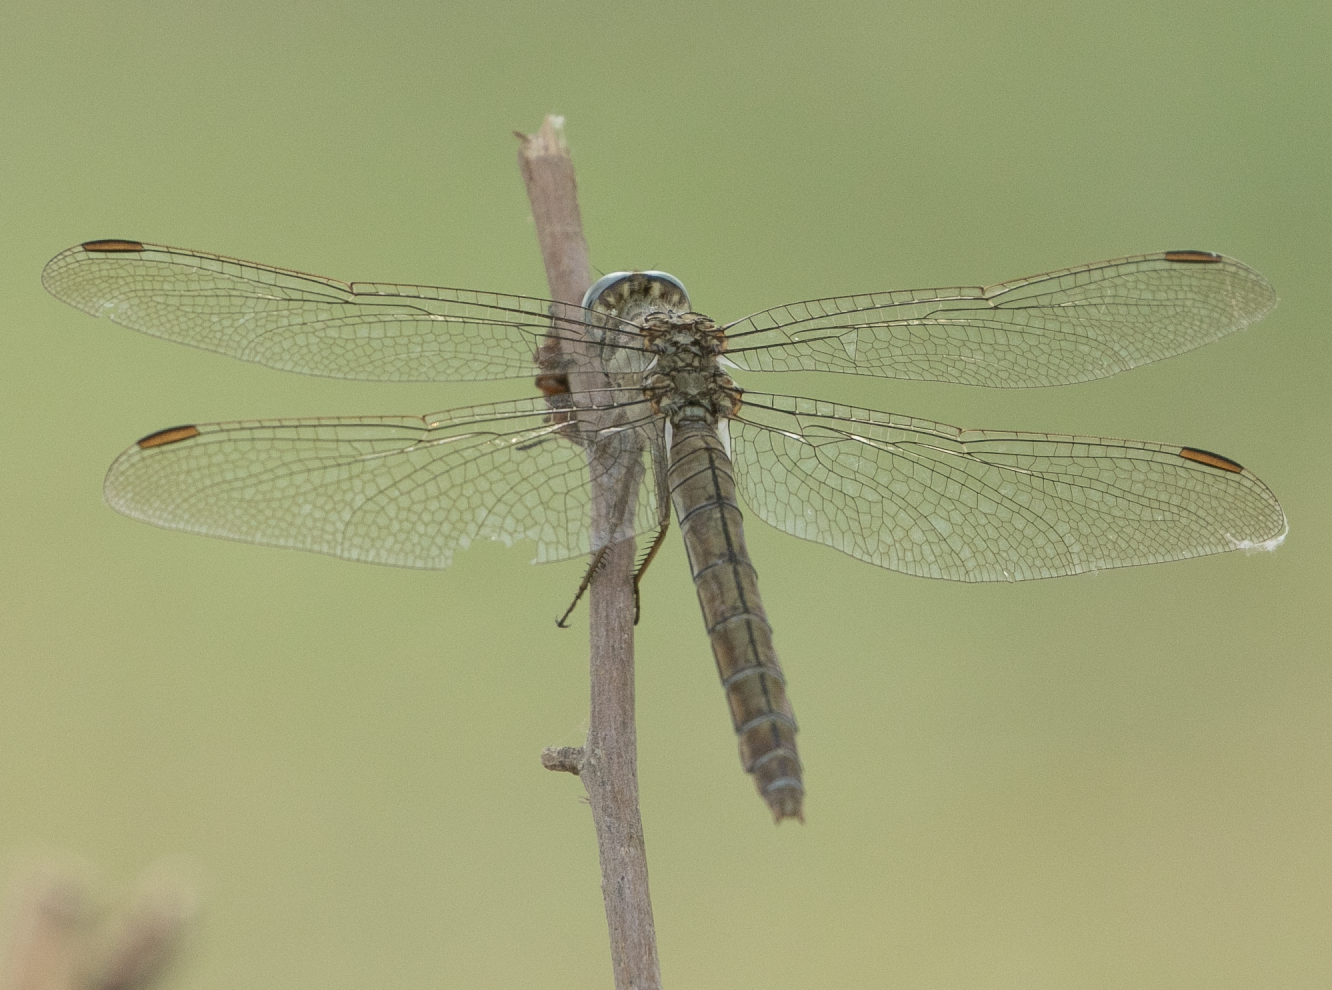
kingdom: Animalia
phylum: Arthropoda
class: Insecta
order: Odonata
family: Libellulidae
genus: Orthetrum
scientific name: Orthetrum brunneum
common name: Southern skimmer
